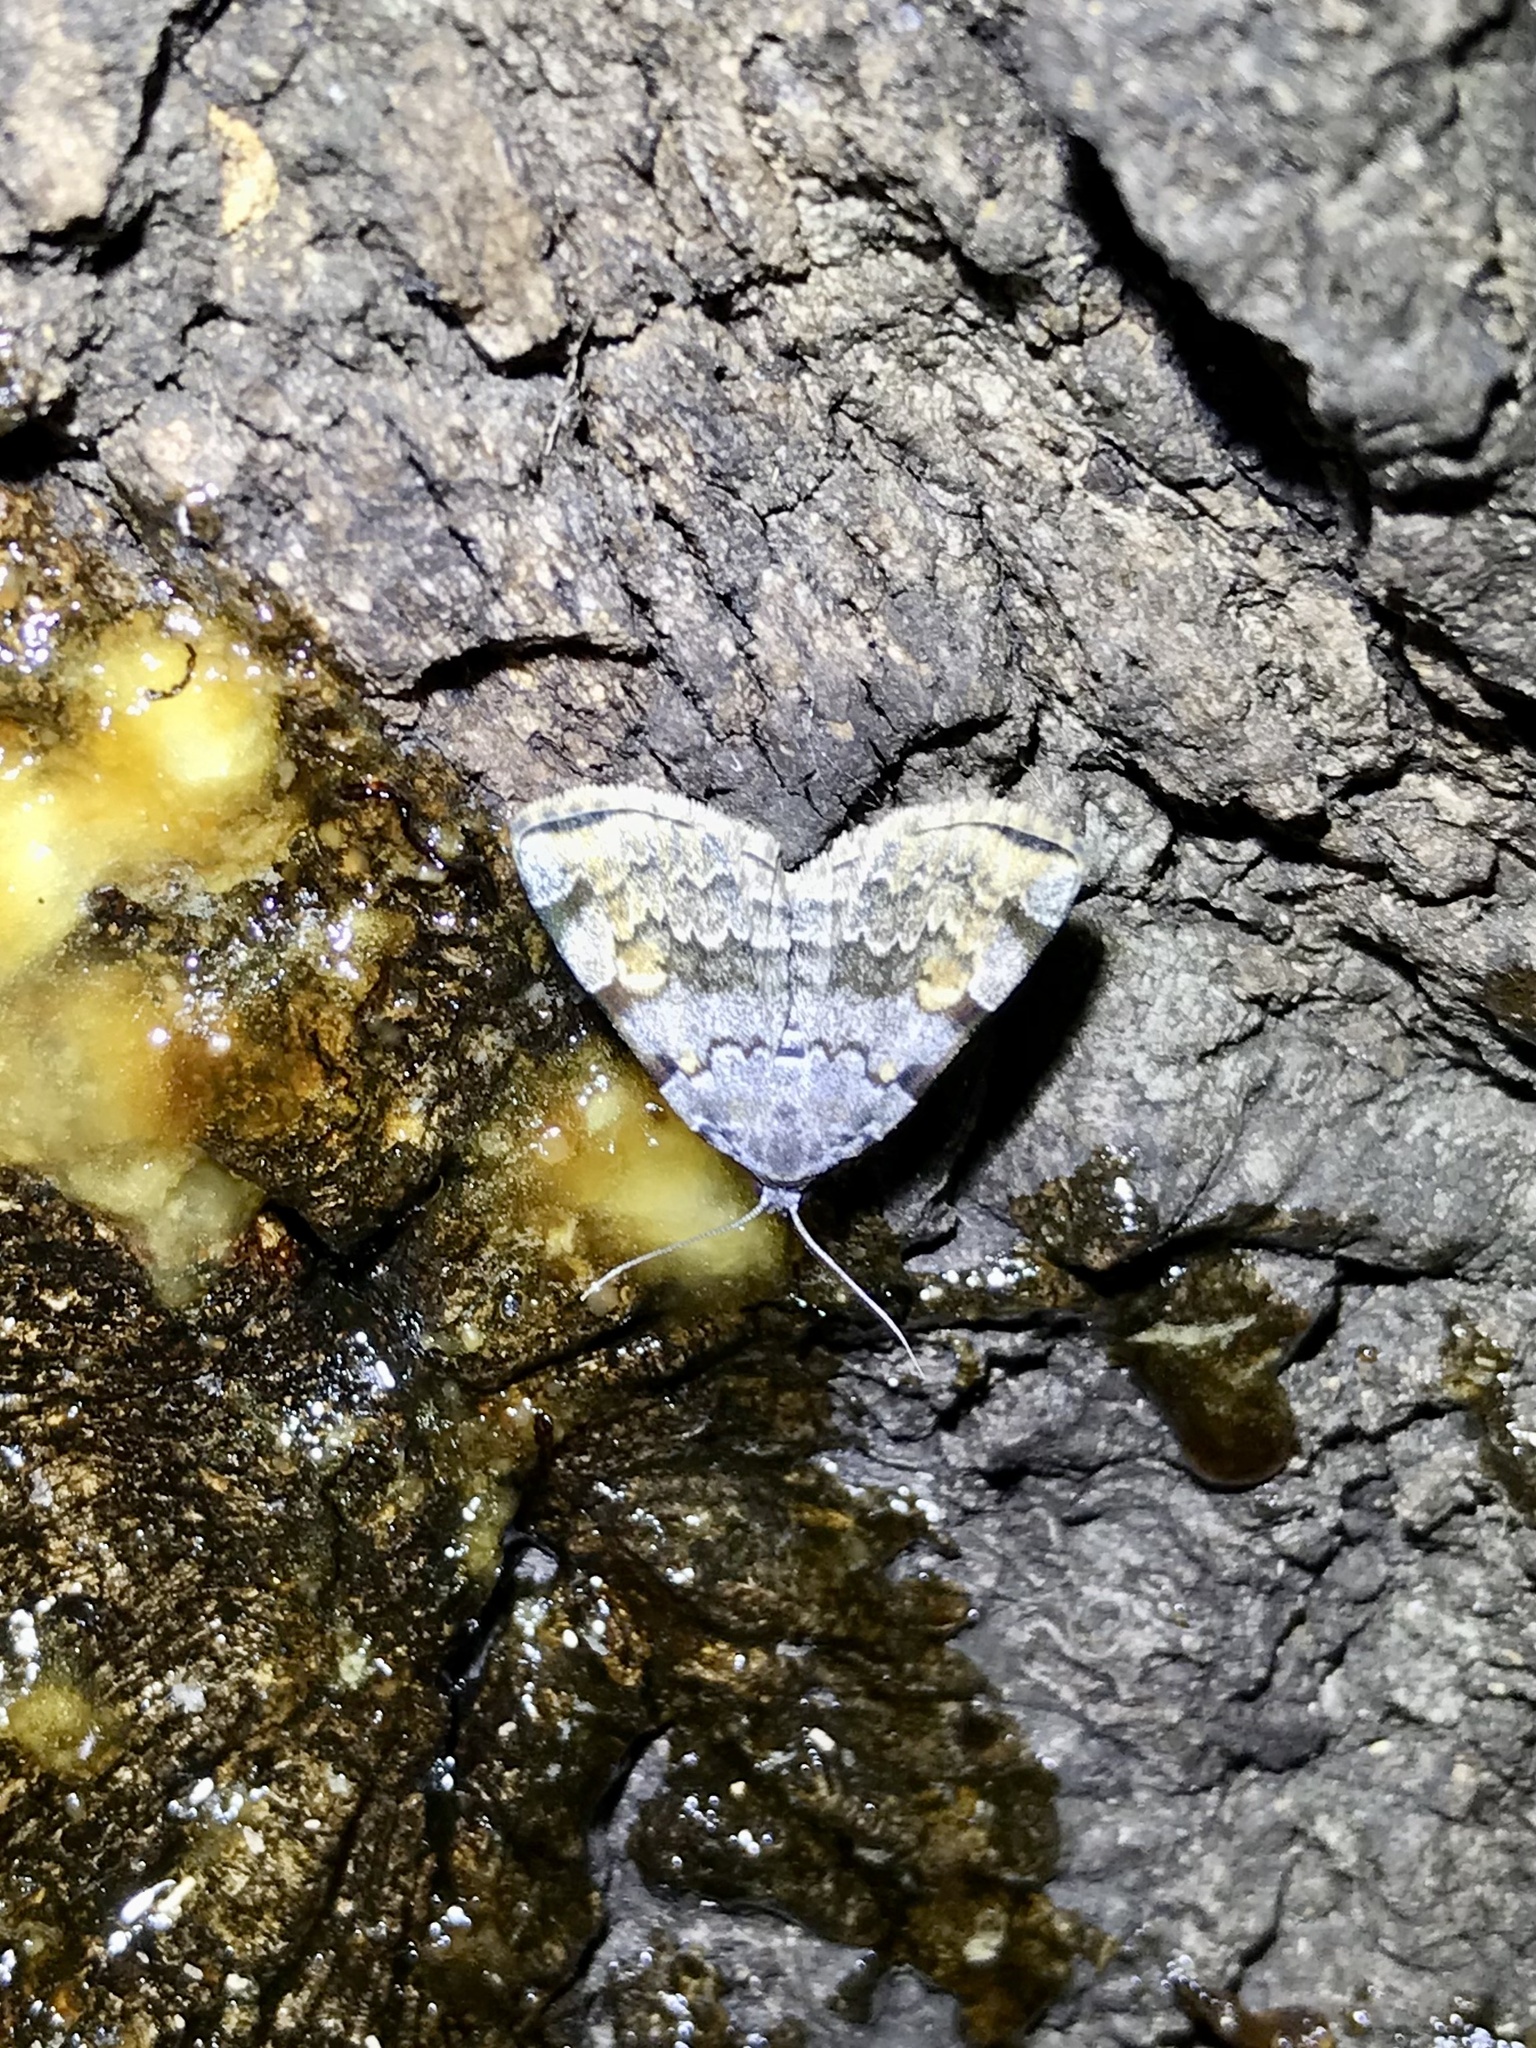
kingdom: Animalia
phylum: Arthropoda
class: Insecta
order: Lepidoptera
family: Erebidae
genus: Idia
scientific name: Idia americalis
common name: American idia moth
